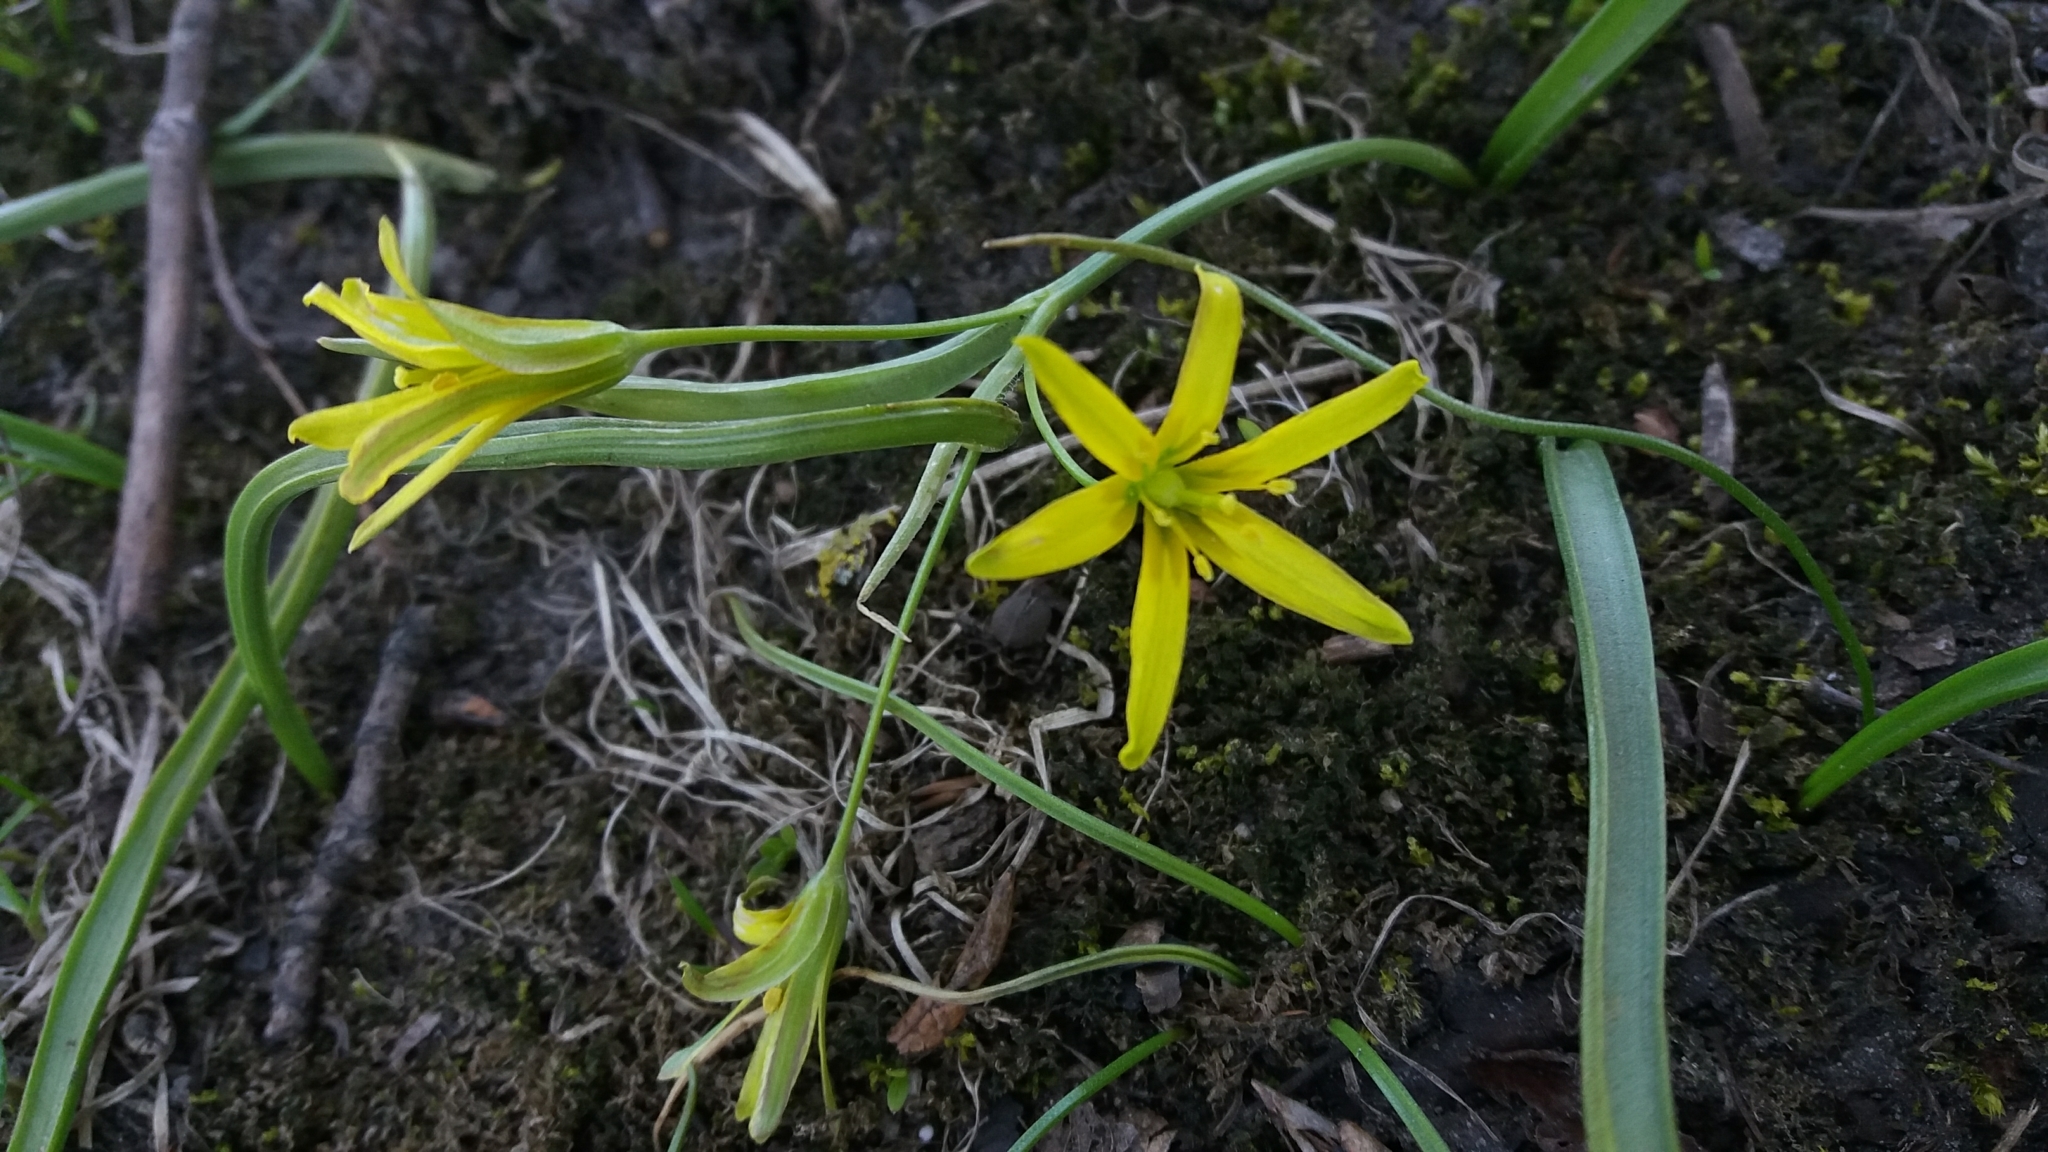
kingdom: Plantae
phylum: Tracheophyta
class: Liliopsida
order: Liliales
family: Liliaceae
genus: Gagea
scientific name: Gagea lutea
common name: Yellow star-of-bethlehem
